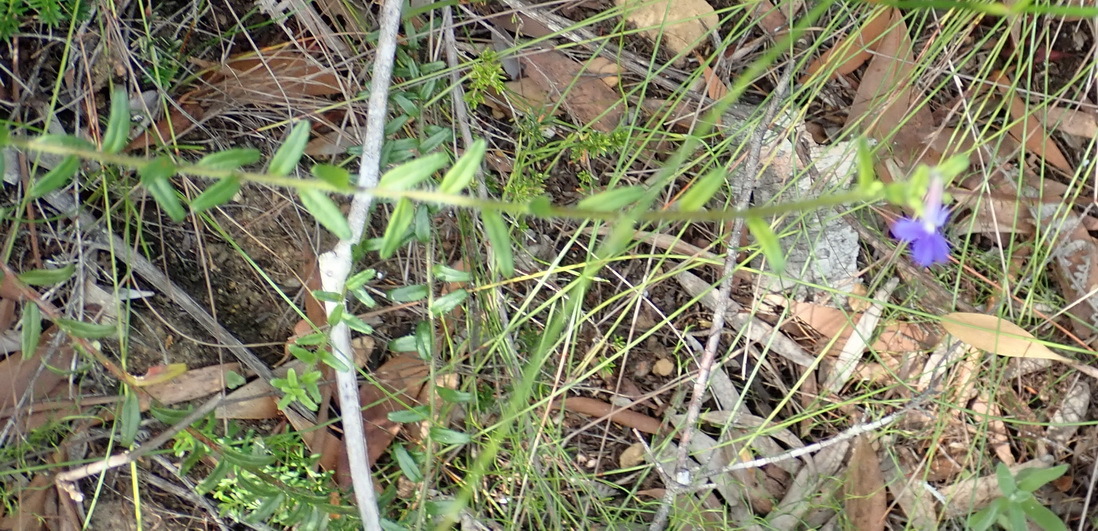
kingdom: Plantae
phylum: Tracheophyta
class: Magnoliopsida
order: Asterales
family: Campanulaceae
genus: Lobelia
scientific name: Lobelia neglecta
